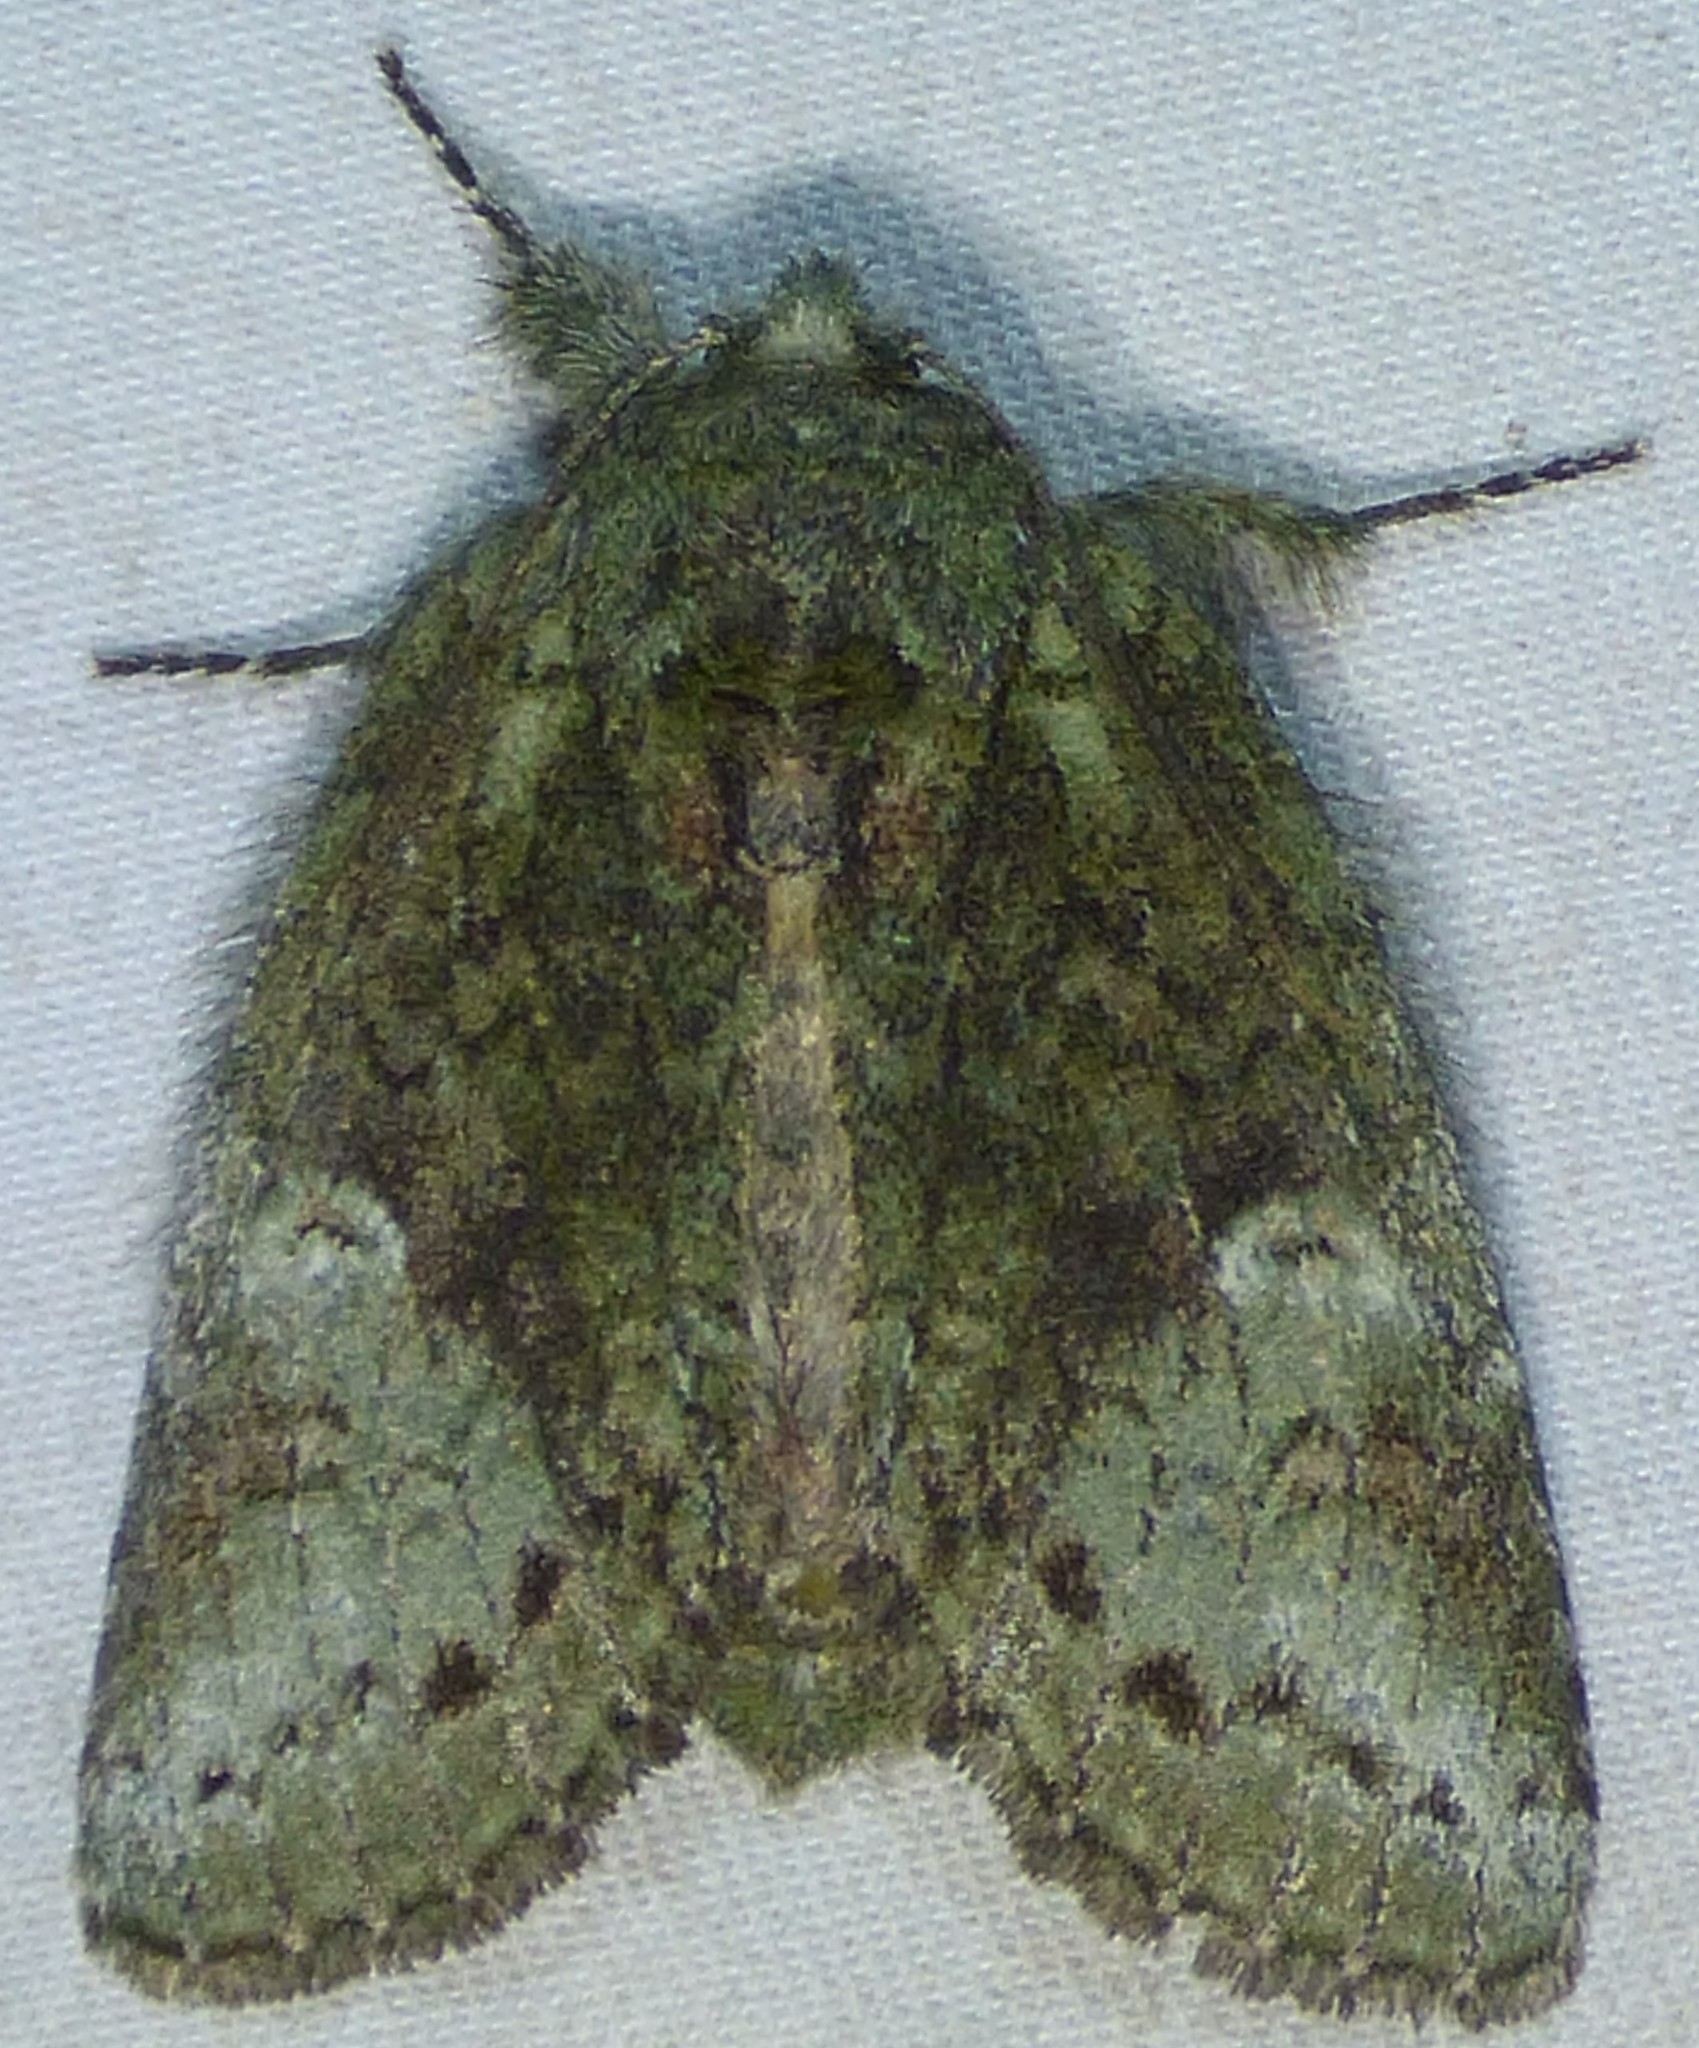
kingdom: Animalia
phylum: Arthropoda
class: Insecta
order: Lepidoptera
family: Notodontidae
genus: Disphragis
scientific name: Disphragis Cecrita guttivitta
